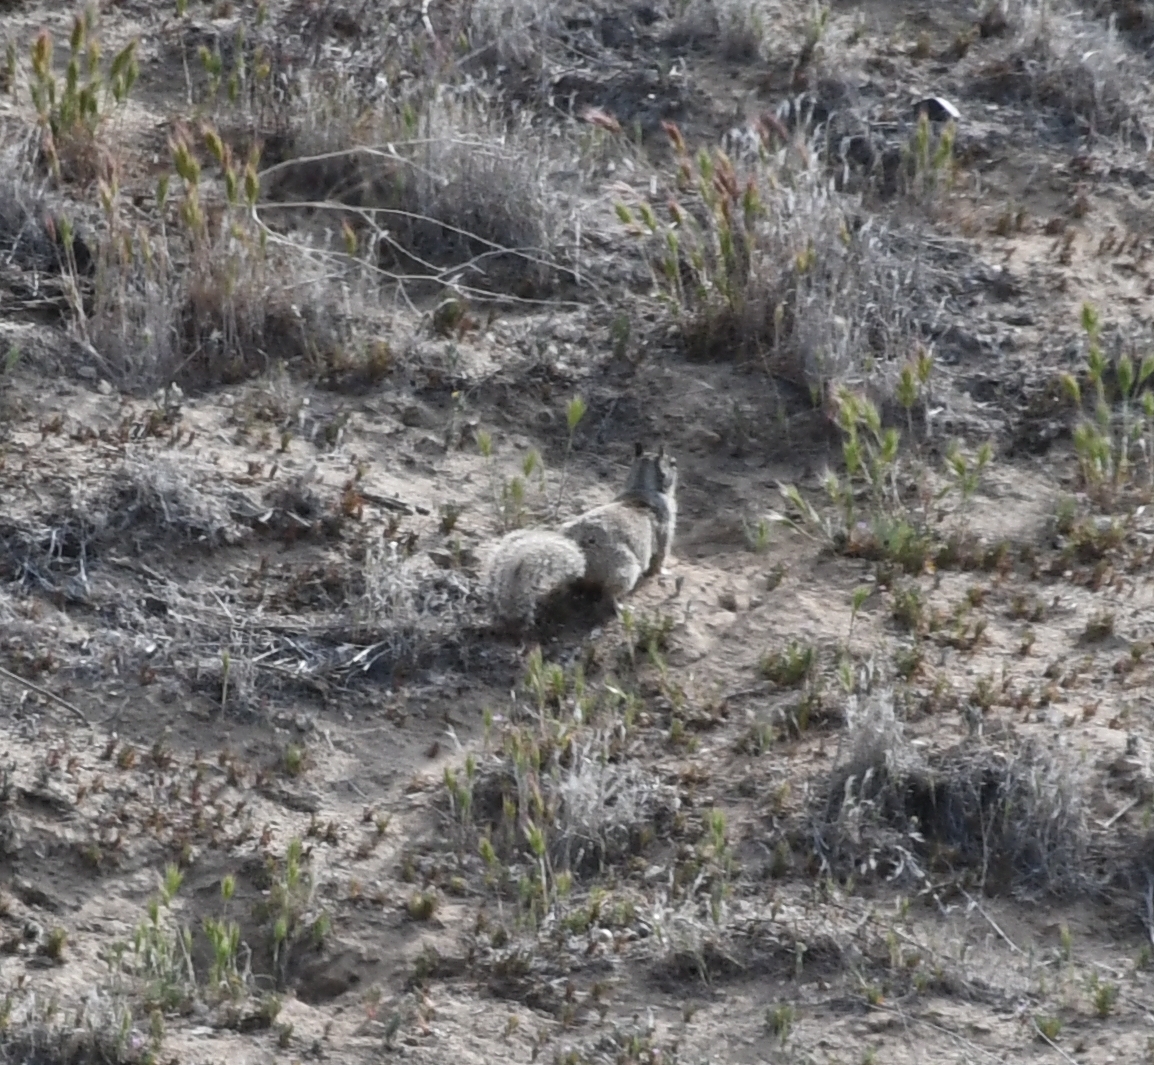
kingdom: Animalia
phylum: Chordata
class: Mammalia
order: Rodentia
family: Sciuridae
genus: Otospermophilus
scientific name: Otospermophilus beecheyi
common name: California ground squirrel
